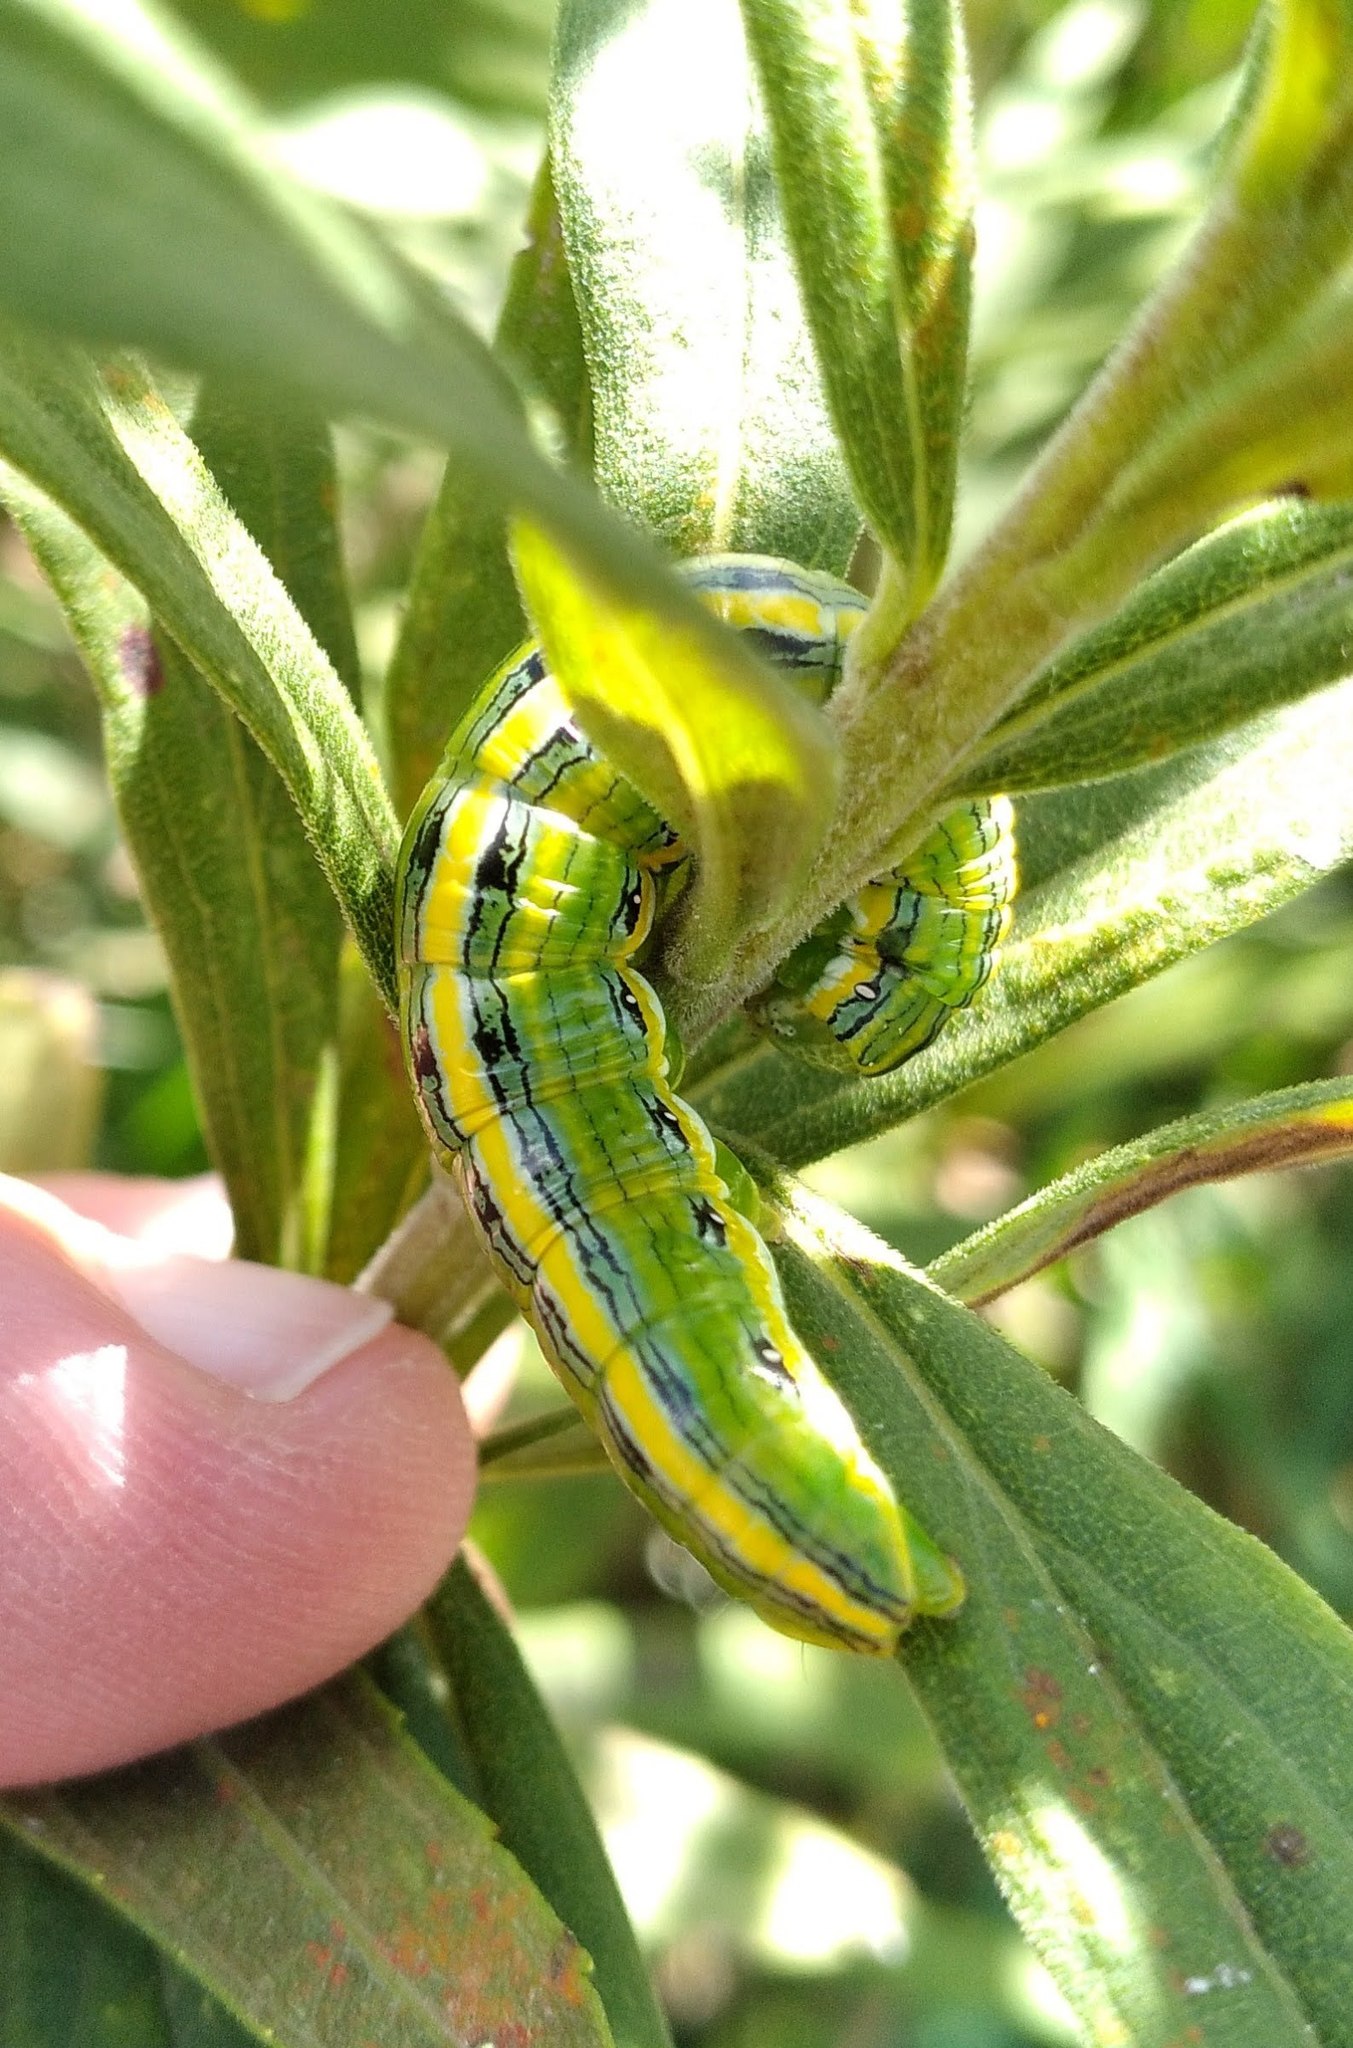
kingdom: Animalia
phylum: Arthropoda
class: Insecta
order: Lepidoptera
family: Noctuidae
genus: Cucullia
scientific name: Cucullia asteroides
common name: Asteroid moth
